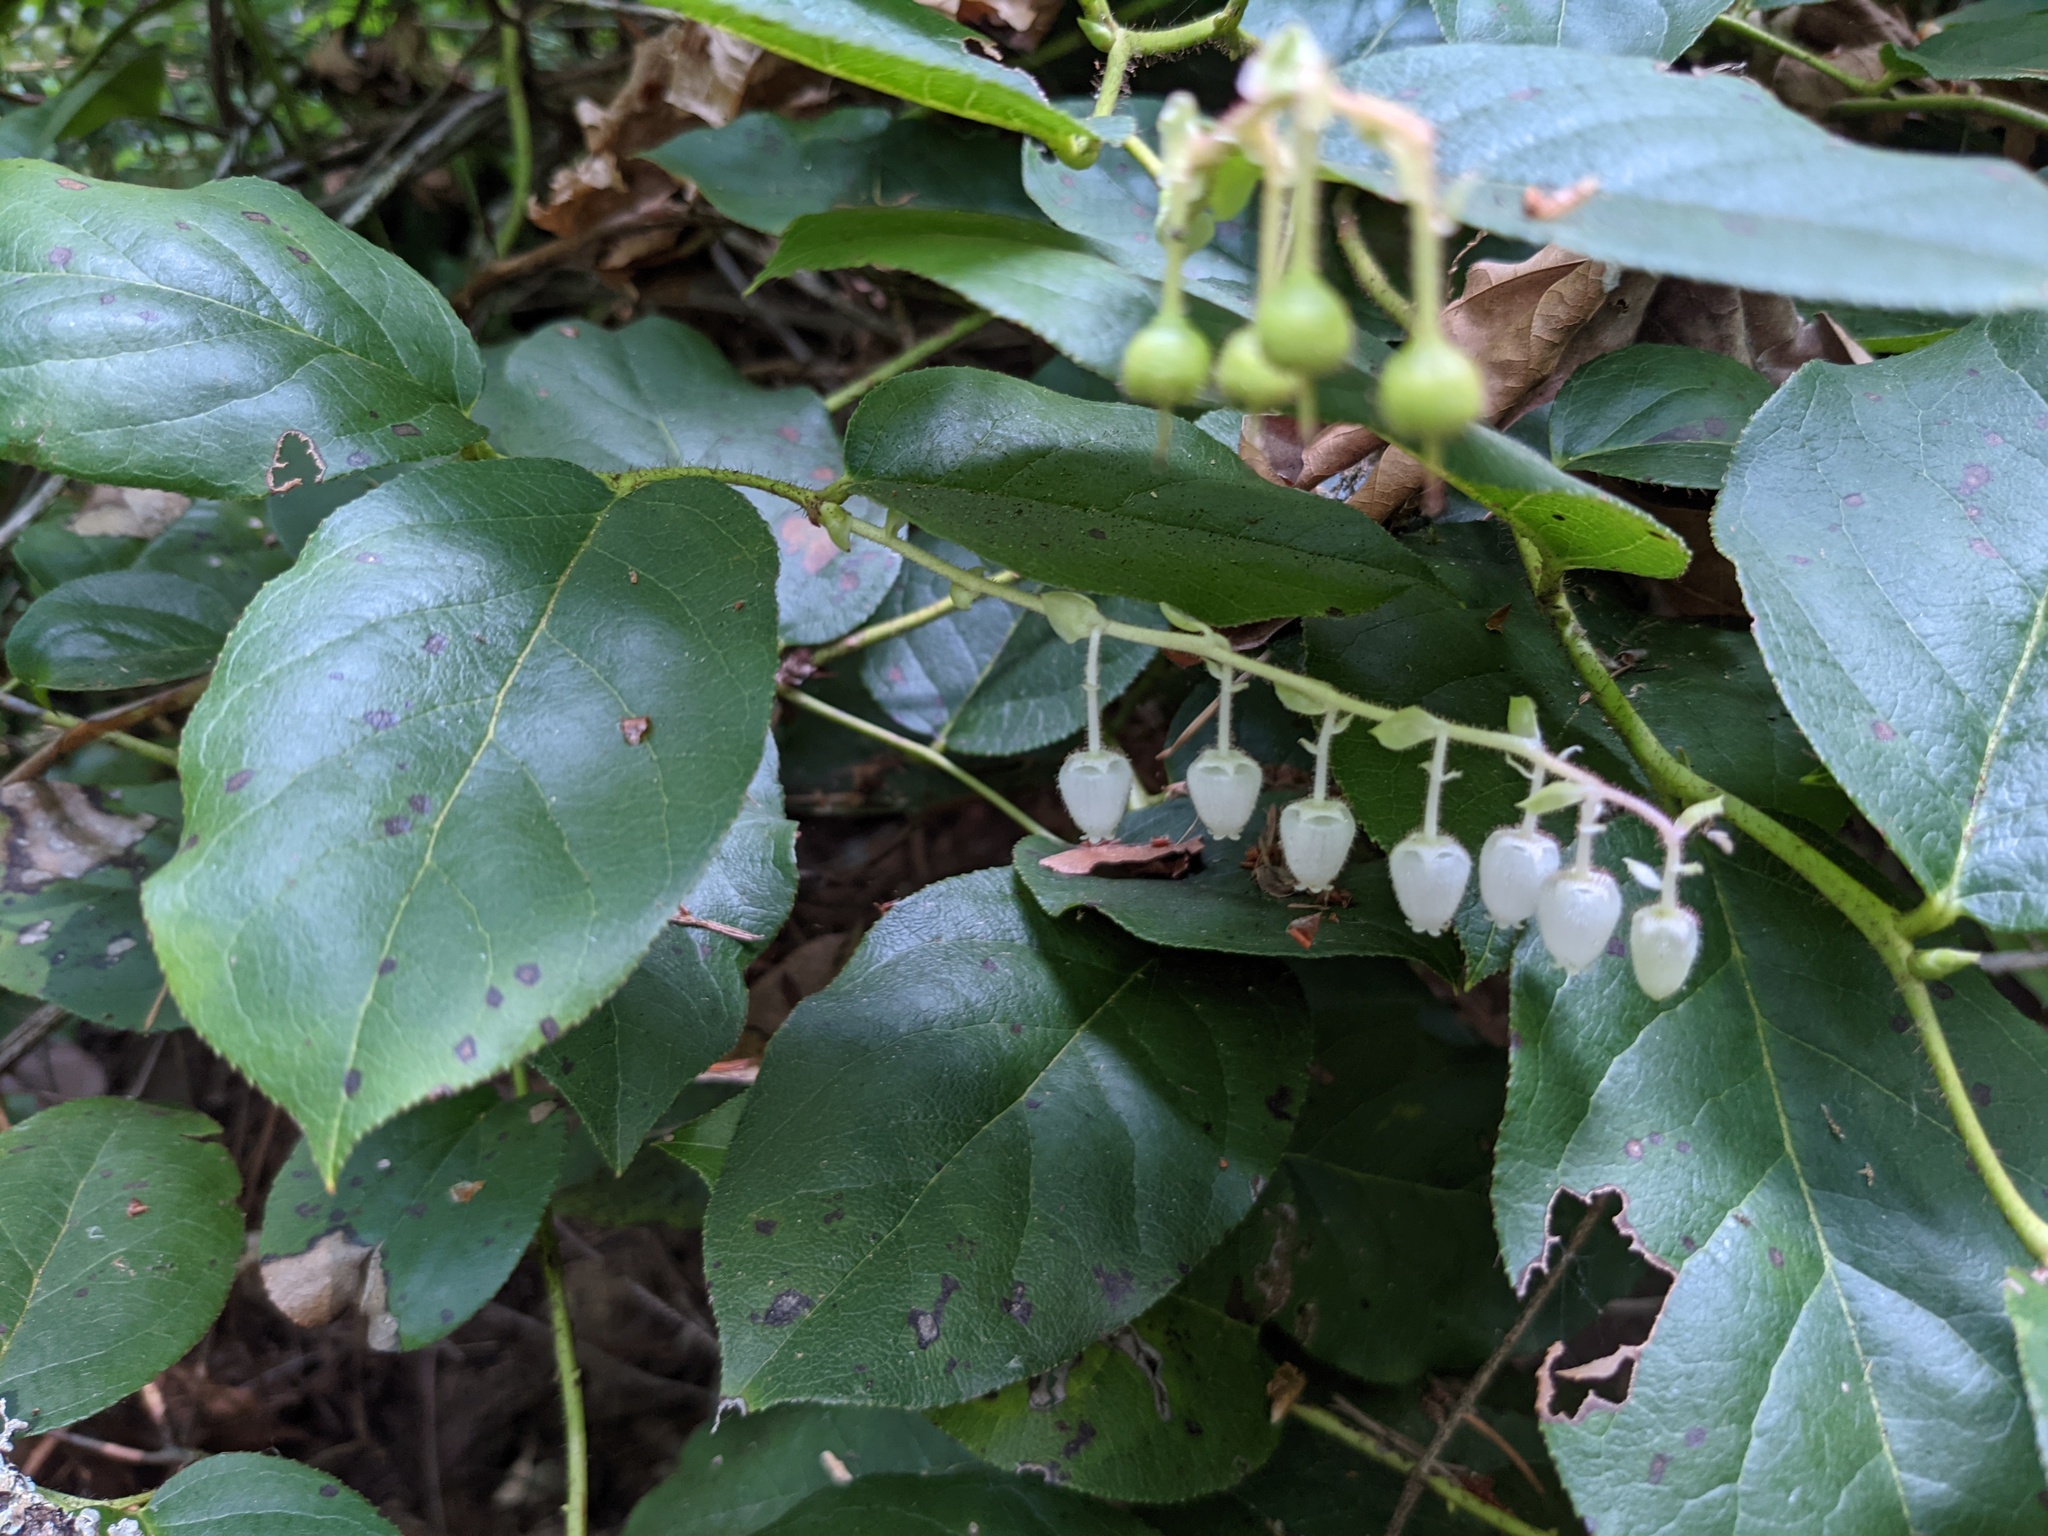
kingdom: Plantae
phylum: Tracheophyta
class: Magnoliopsida
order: Ericales
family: Ericaceae
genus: Gaultheria
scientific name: Gaultheria shallon
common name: Shallon
